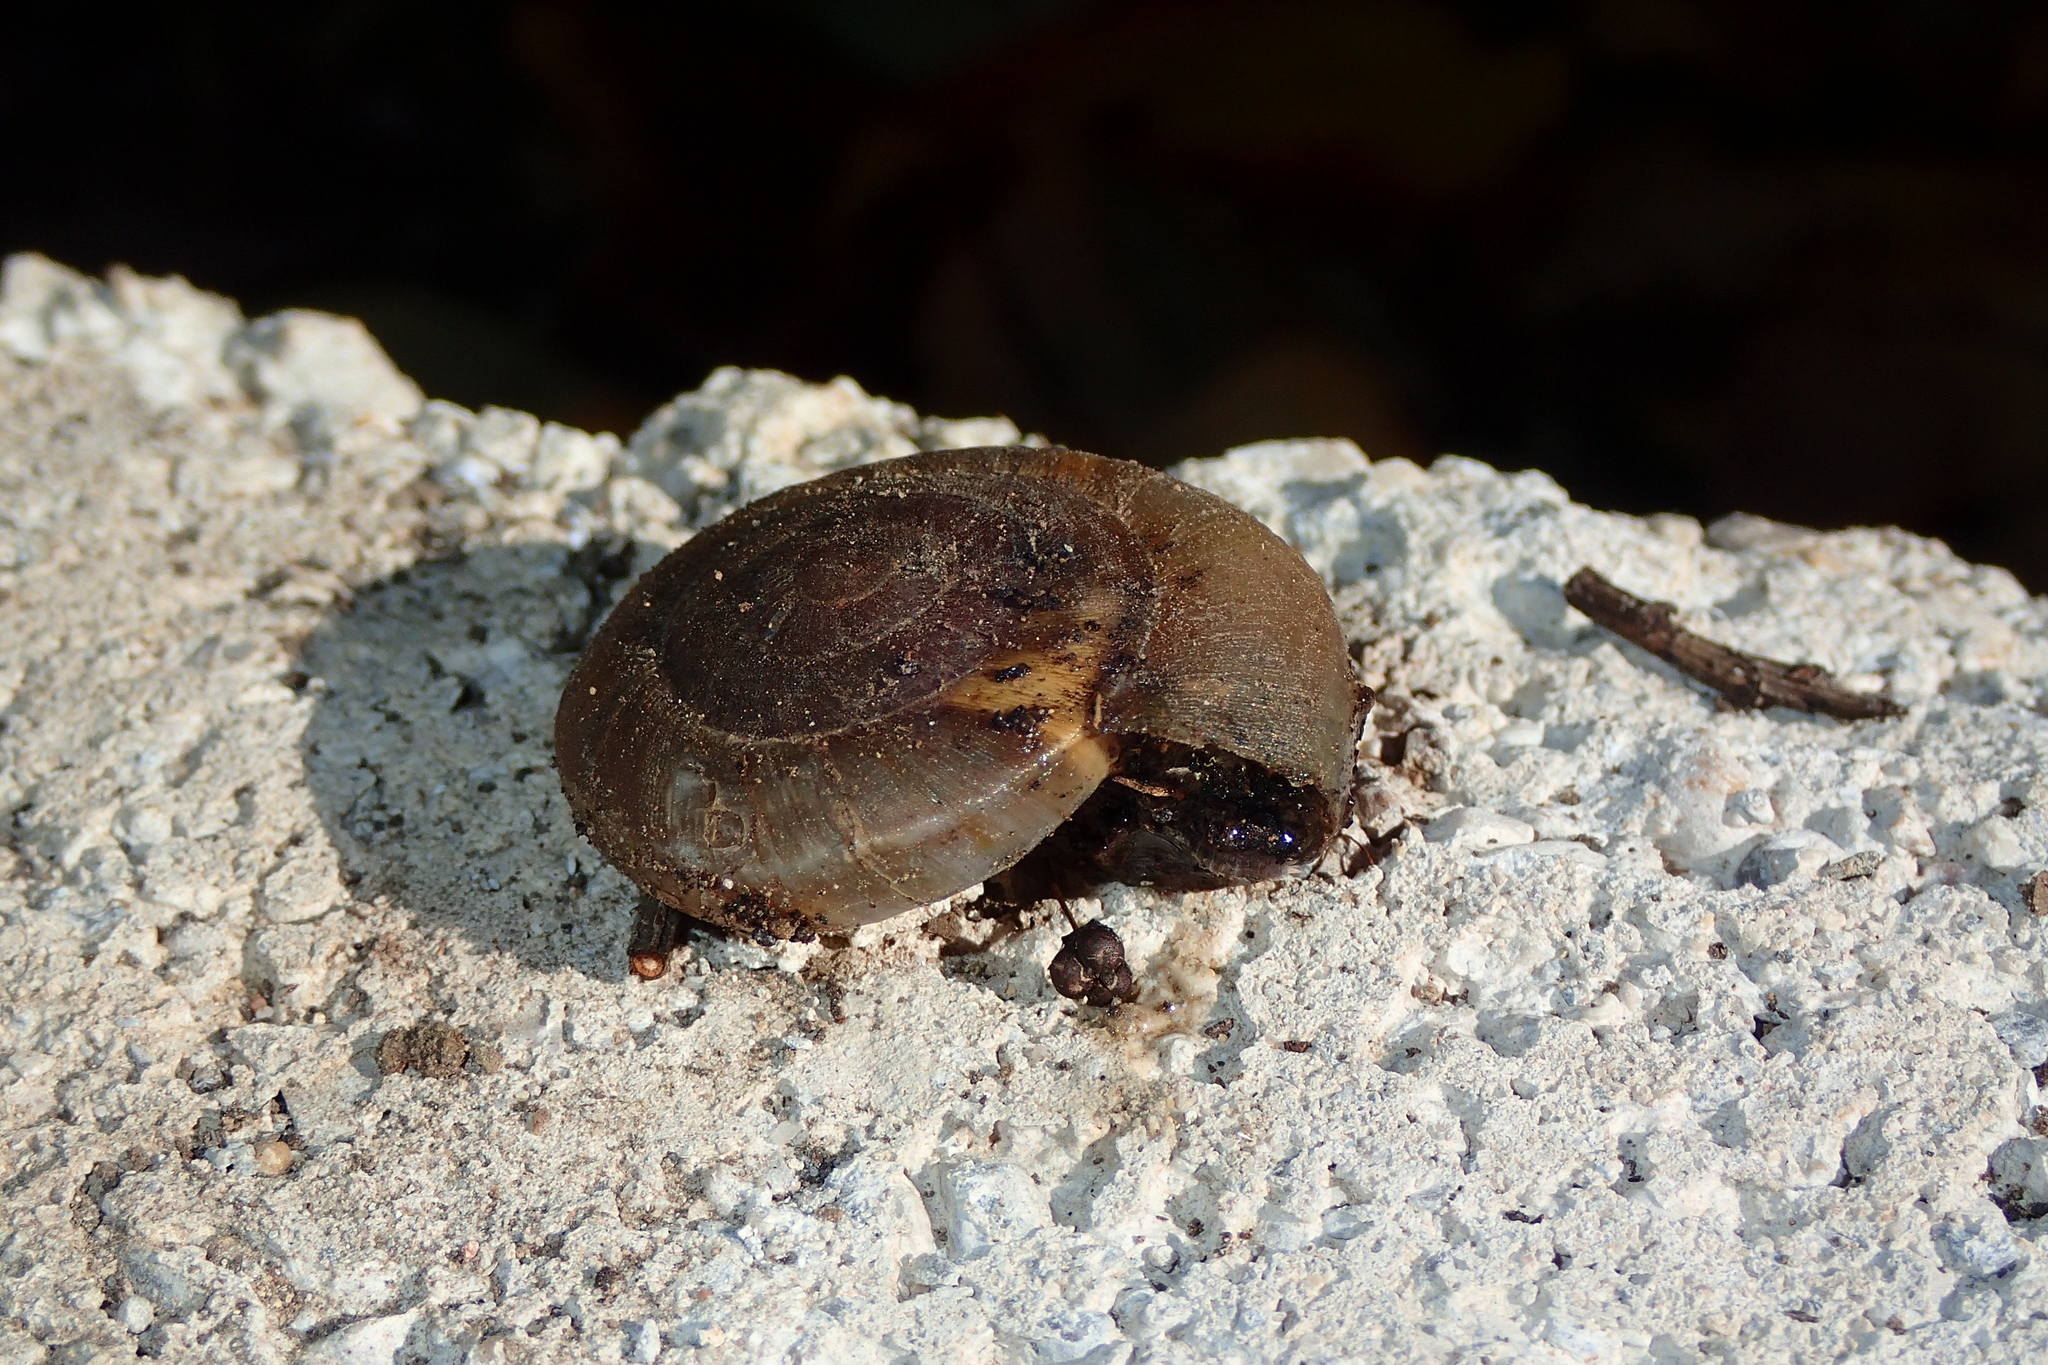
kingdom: Animalia
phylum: Mollusca
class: Gastropoda
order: Stylommatophora
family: Zonitidae
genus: Zonites
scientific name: Zonites algirus
